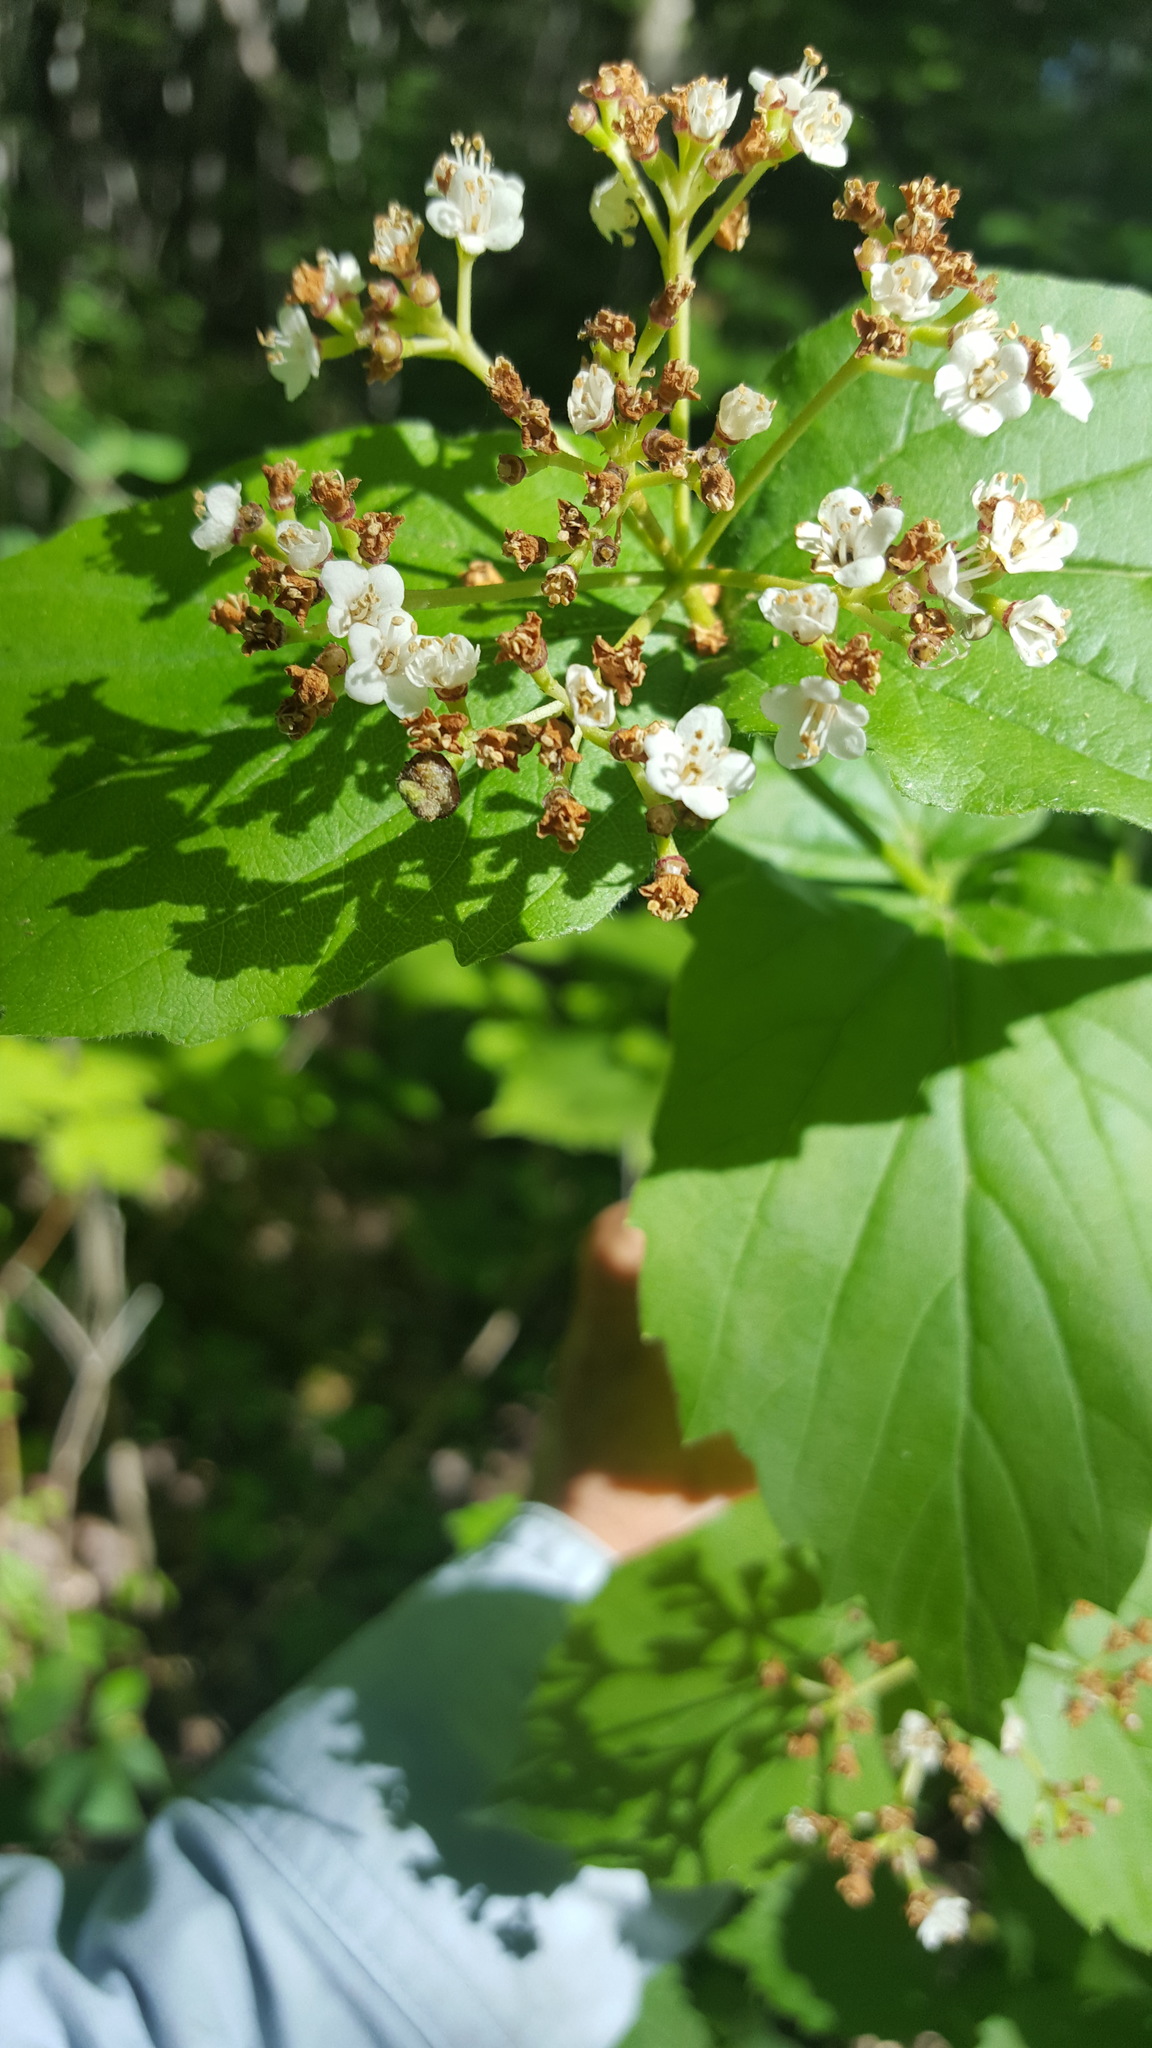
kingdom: Plantae
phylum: Tracheophyta
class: Magnoliopsida
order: Dipsacales
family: Viburnaceae
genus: Viburnum
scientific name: Viburnum rafinesqueanum
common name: Downy arrow-wood
